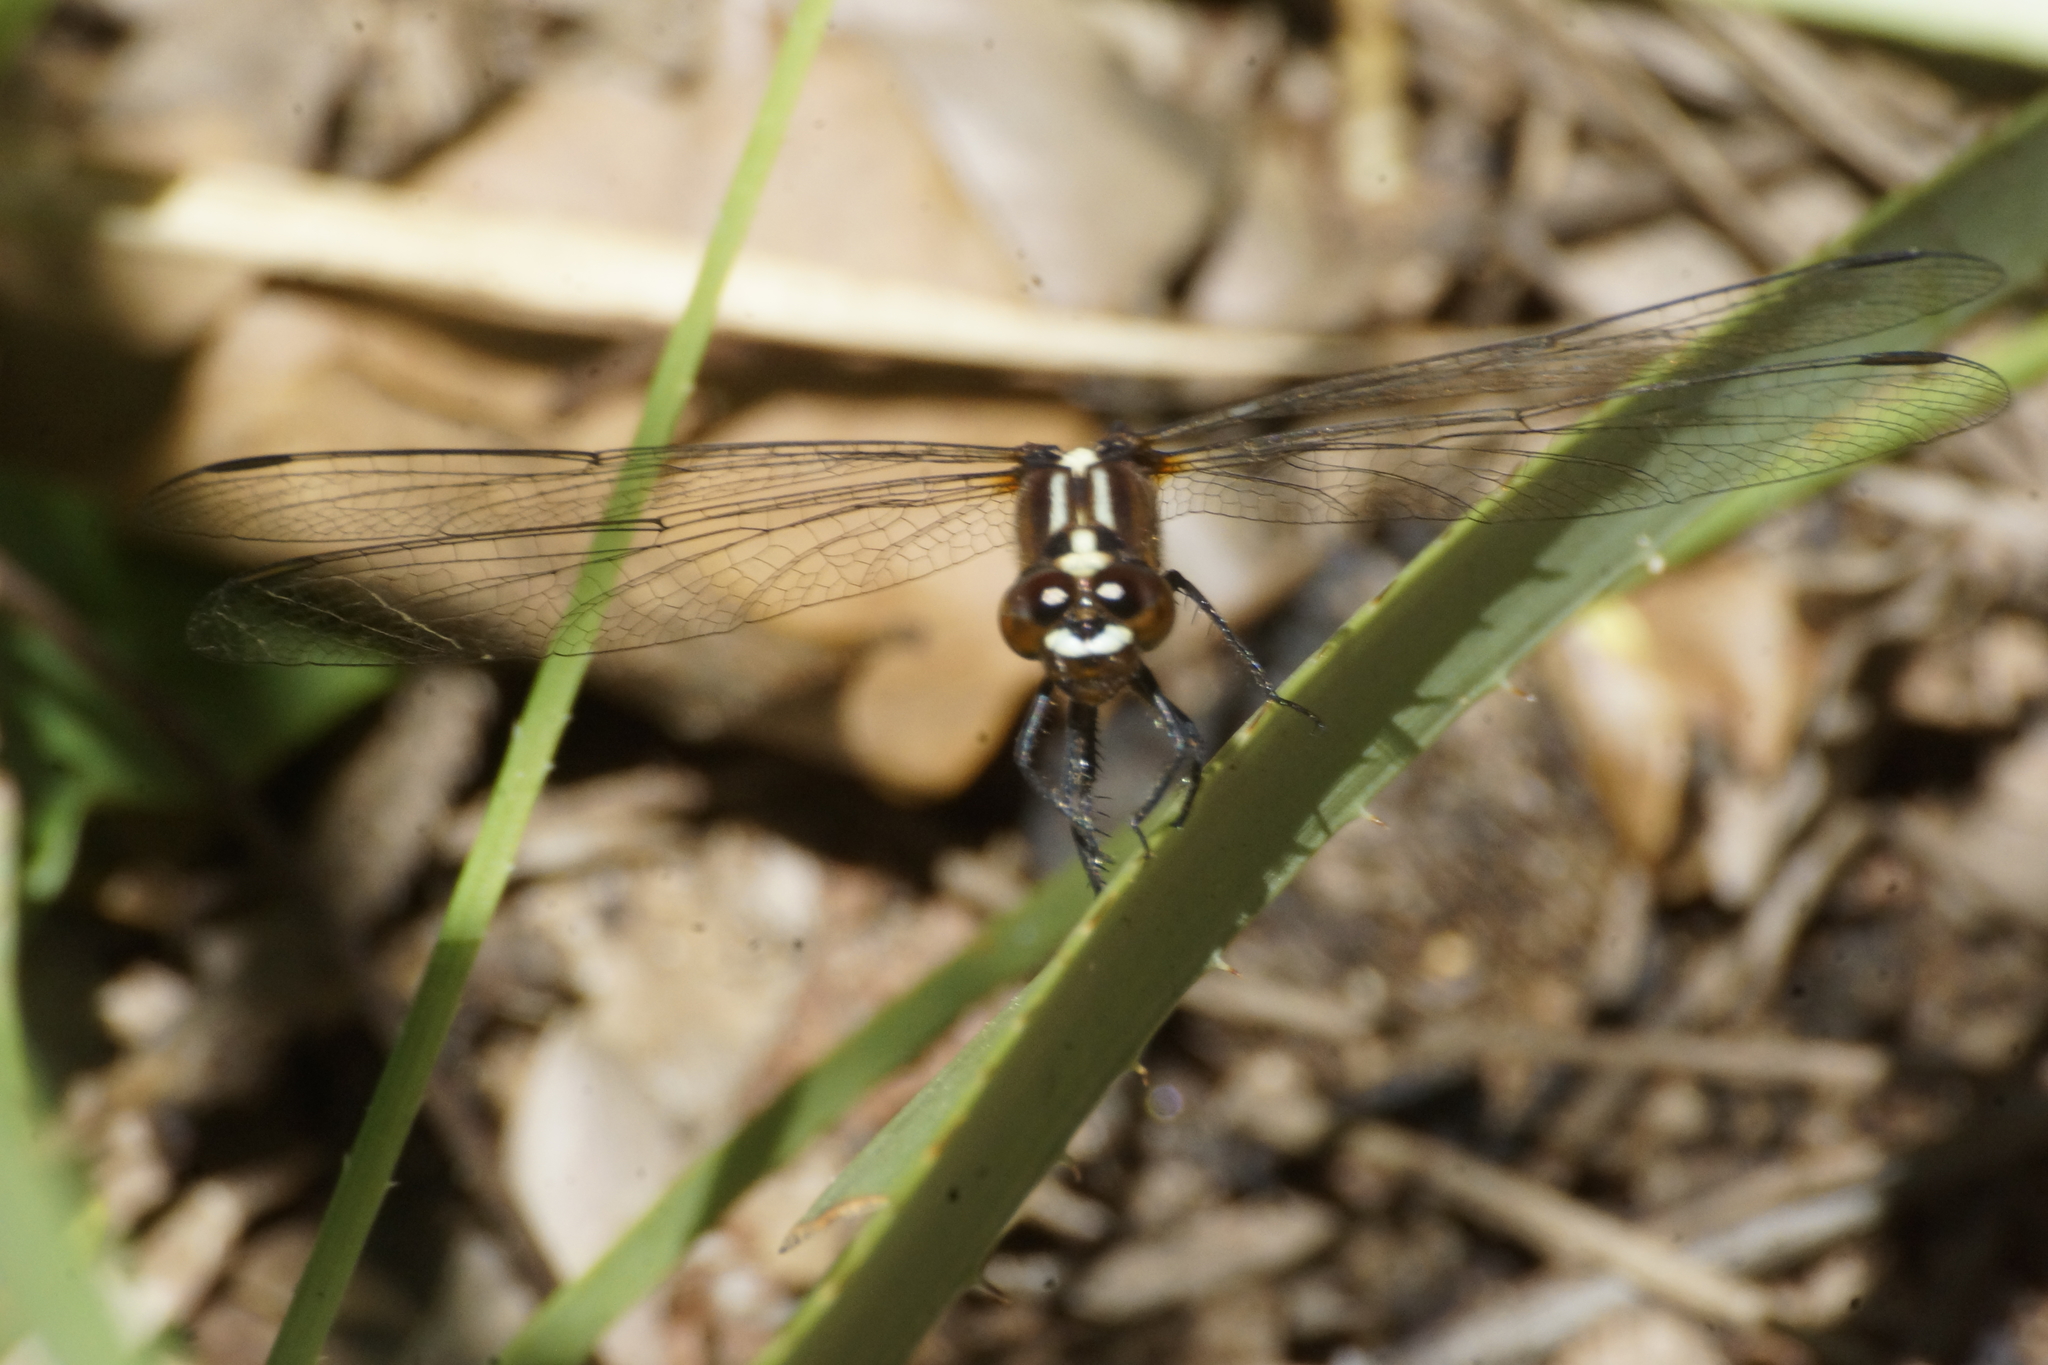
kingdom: Animalia
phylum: Arthropoda
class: Insecta
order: Odonata
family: Libellulidae
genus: Rhodothemis
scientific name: Rhodothemis lieftincki
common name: Red arrow
